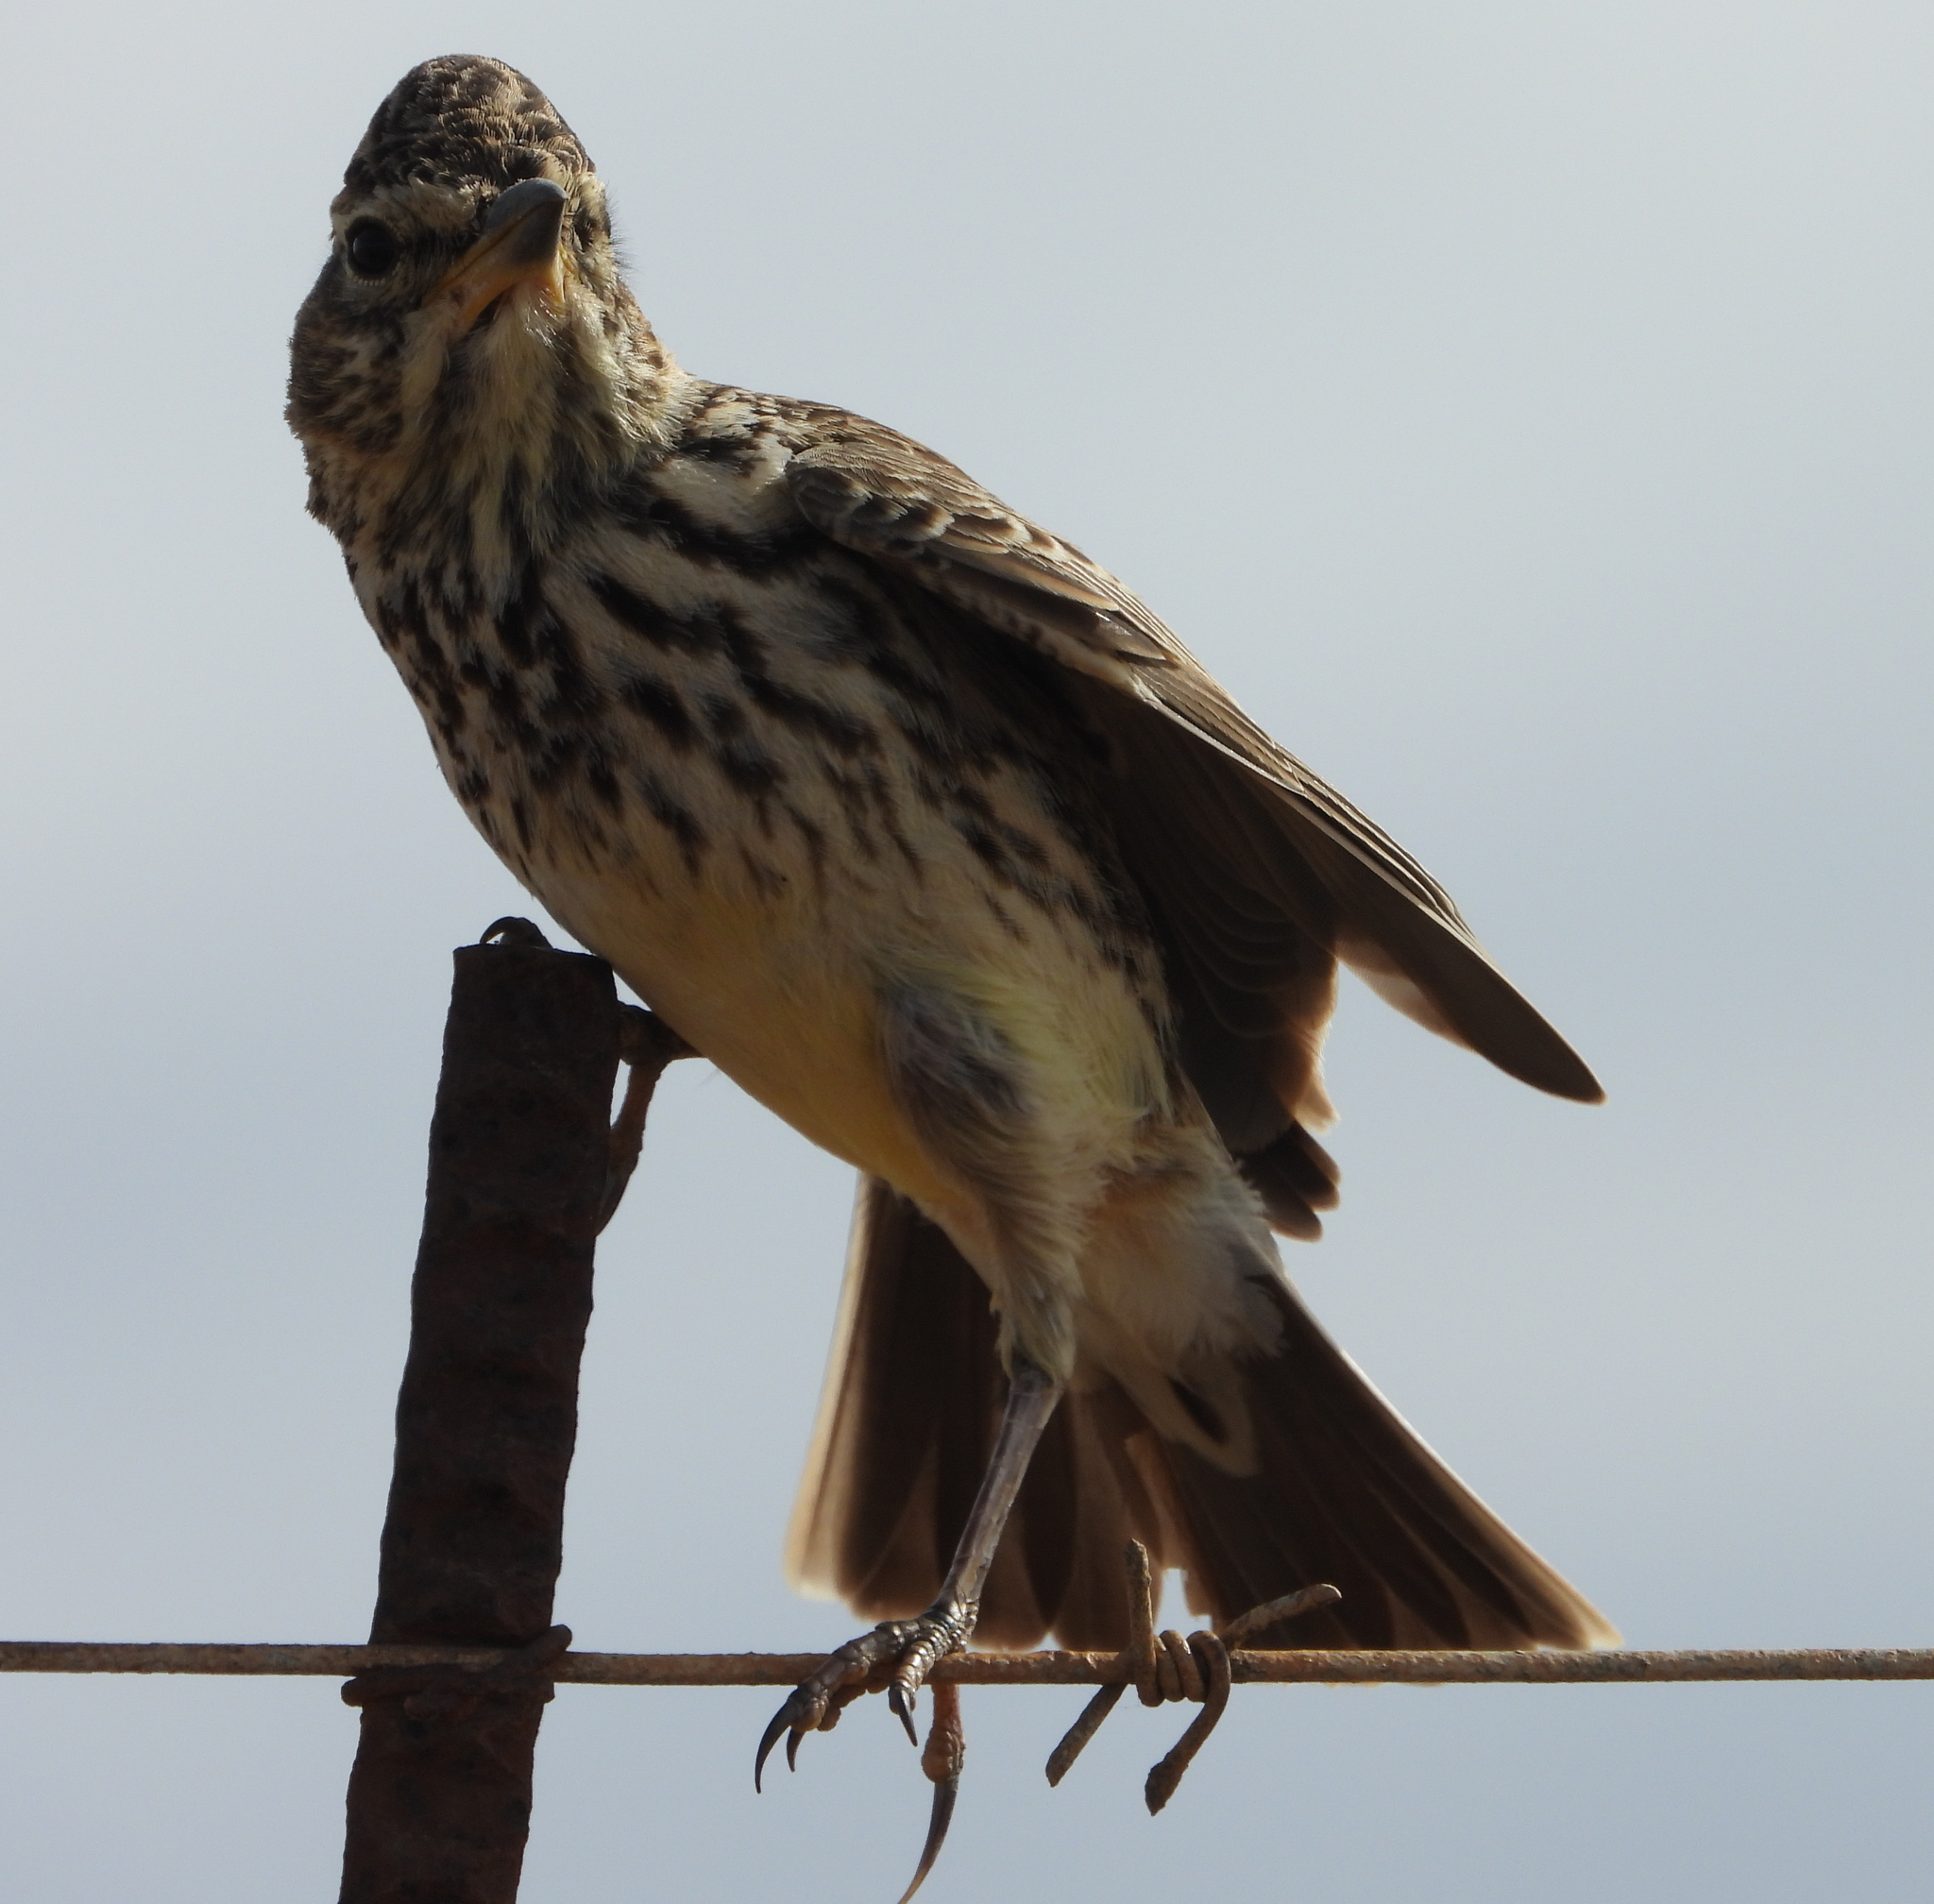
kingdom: Animalia
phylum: Chordata
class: Aves
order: Passeriformes
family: Alaudidae
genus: Galerida
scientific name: Galerida magnirostris
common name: Large-billed lark
